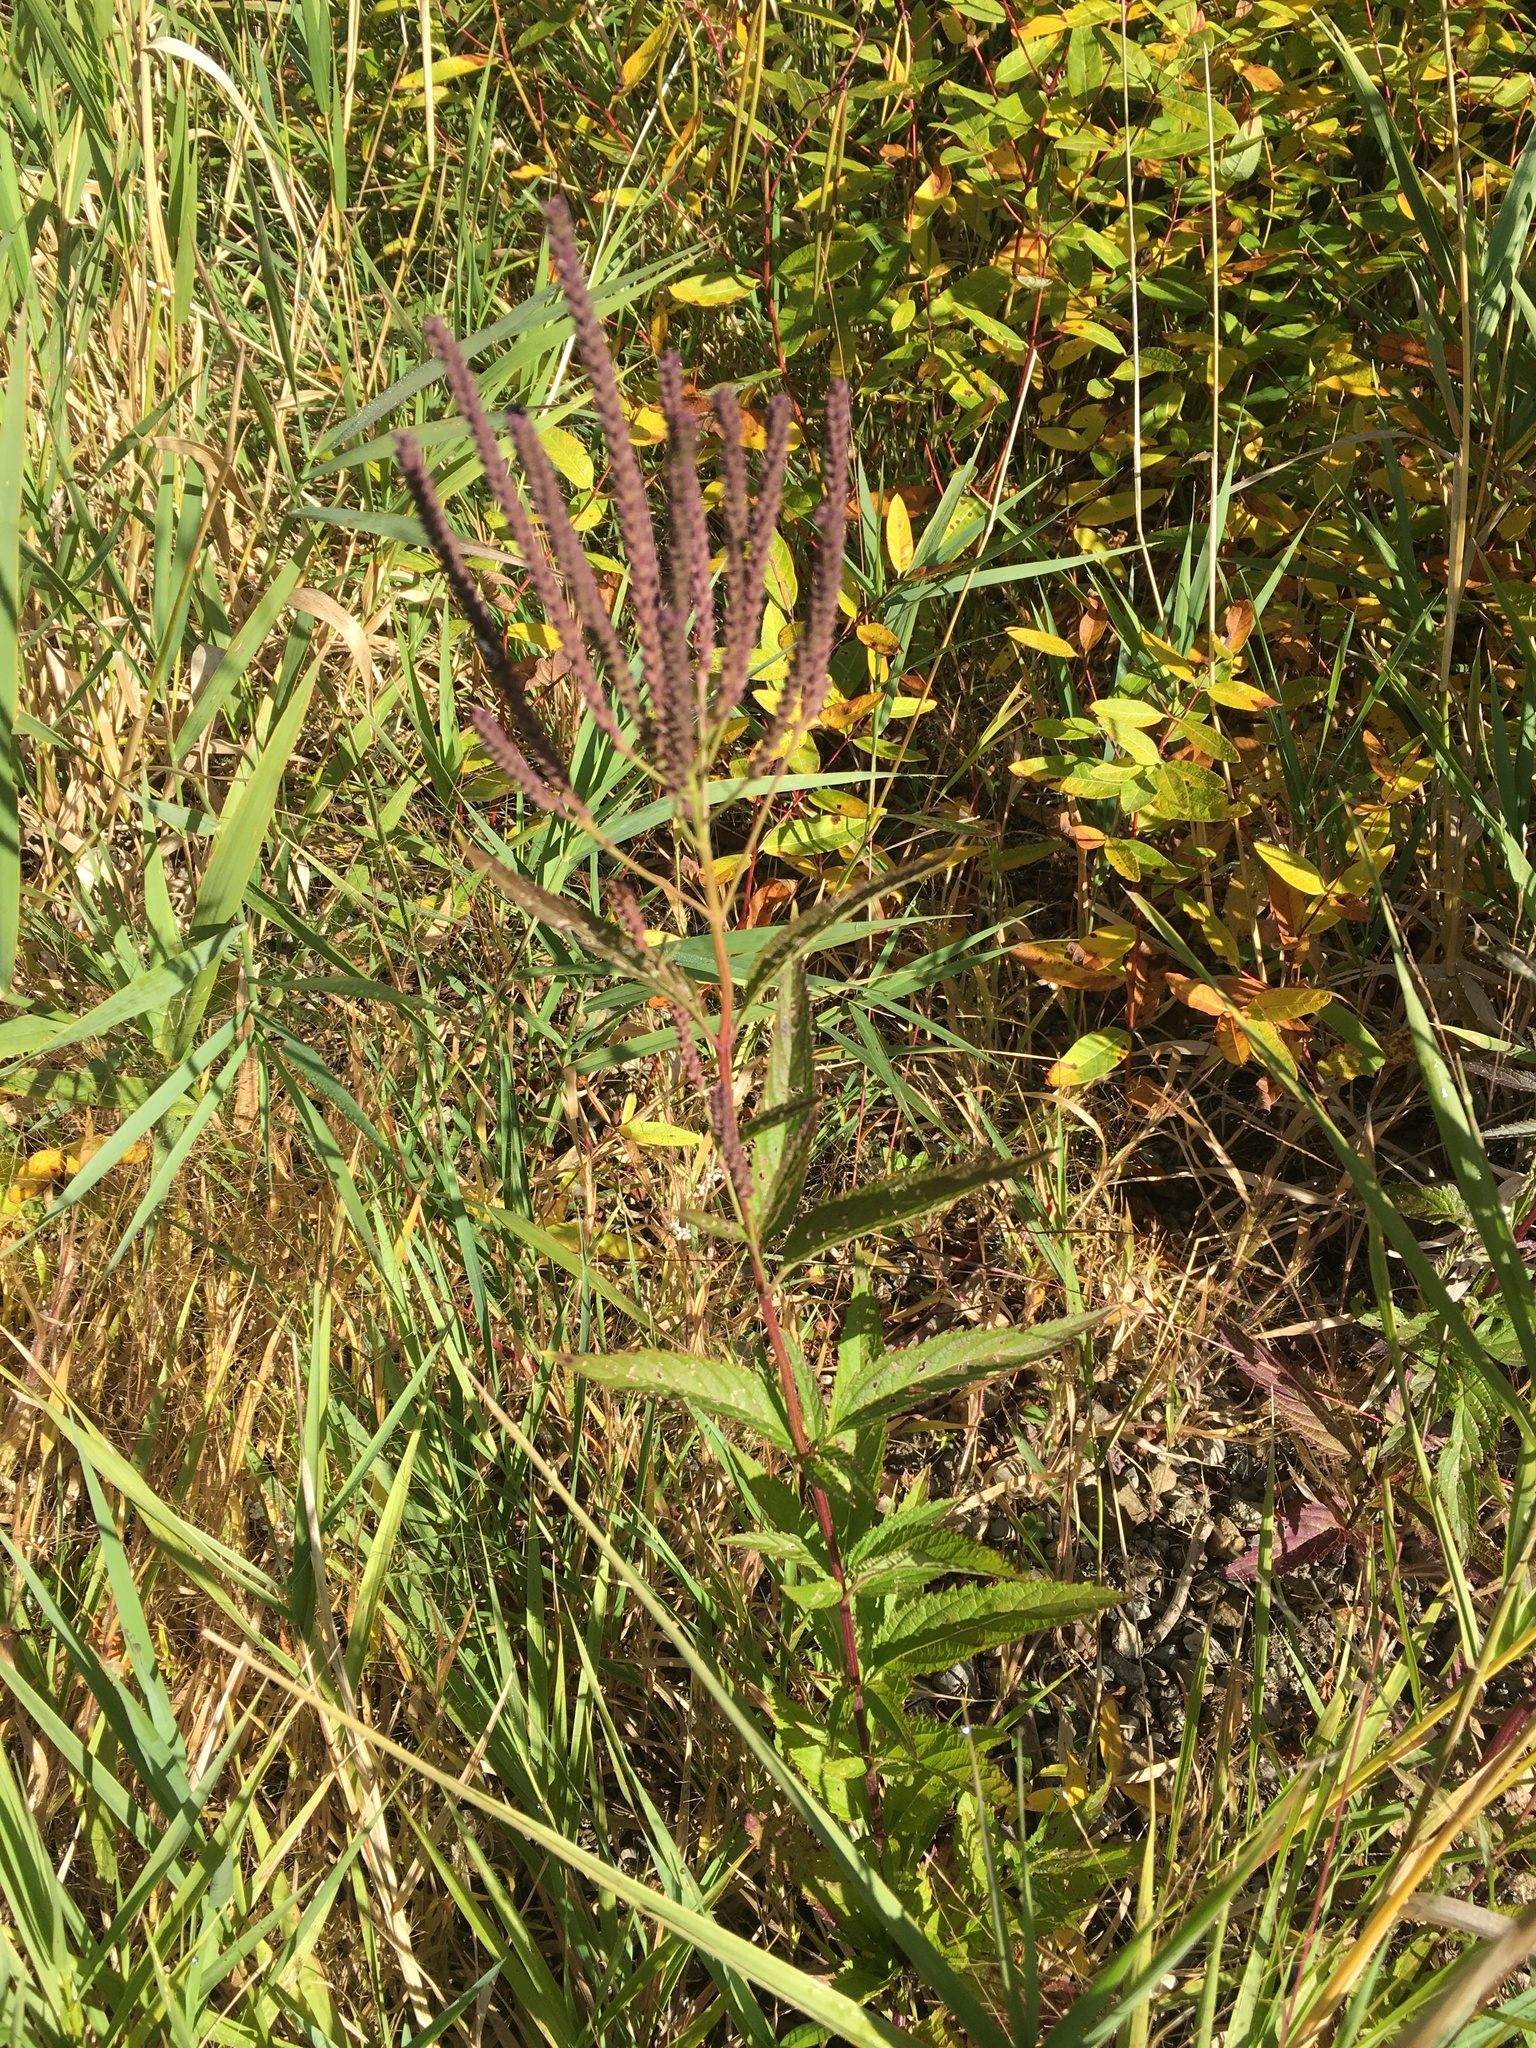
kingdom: Plantae
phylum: Tracheophyta
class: Magnoliopsida
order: Lamiales
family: Verbenaceae
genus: Verbena
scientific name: Verbena hastata
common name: American blue vervain
